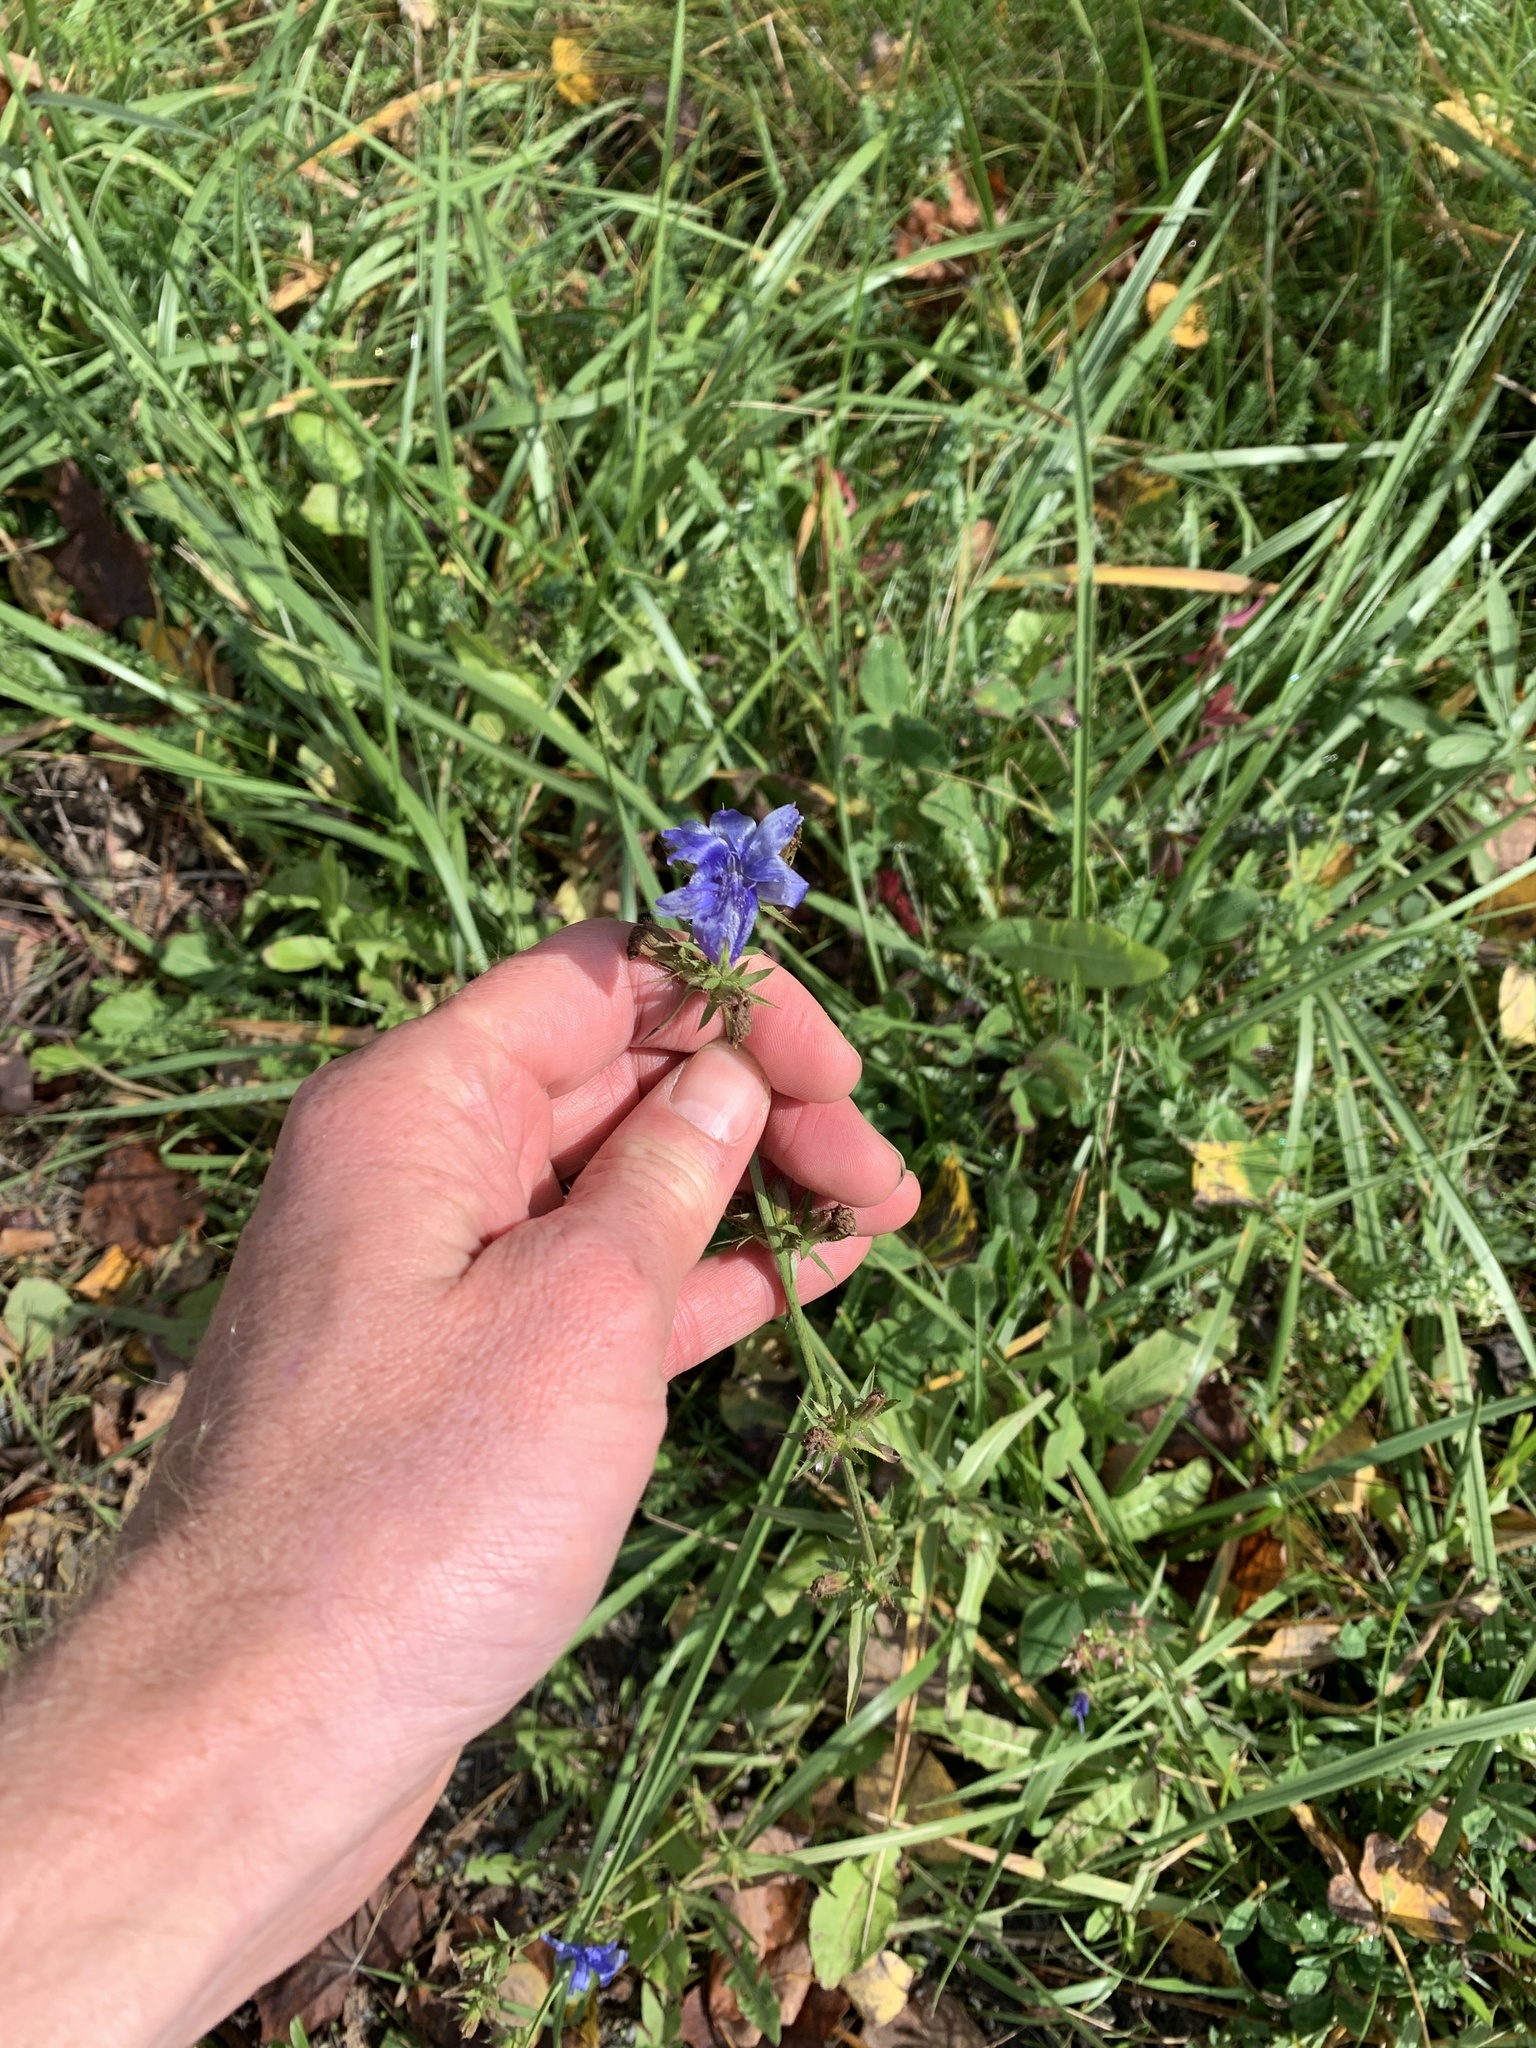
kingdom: Plantae
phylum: Tracheophyta
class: Magnoliopsida
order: Asterales
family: Asteraceae
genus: Cichorium
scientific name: Cichorium intybus
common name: Chicory
